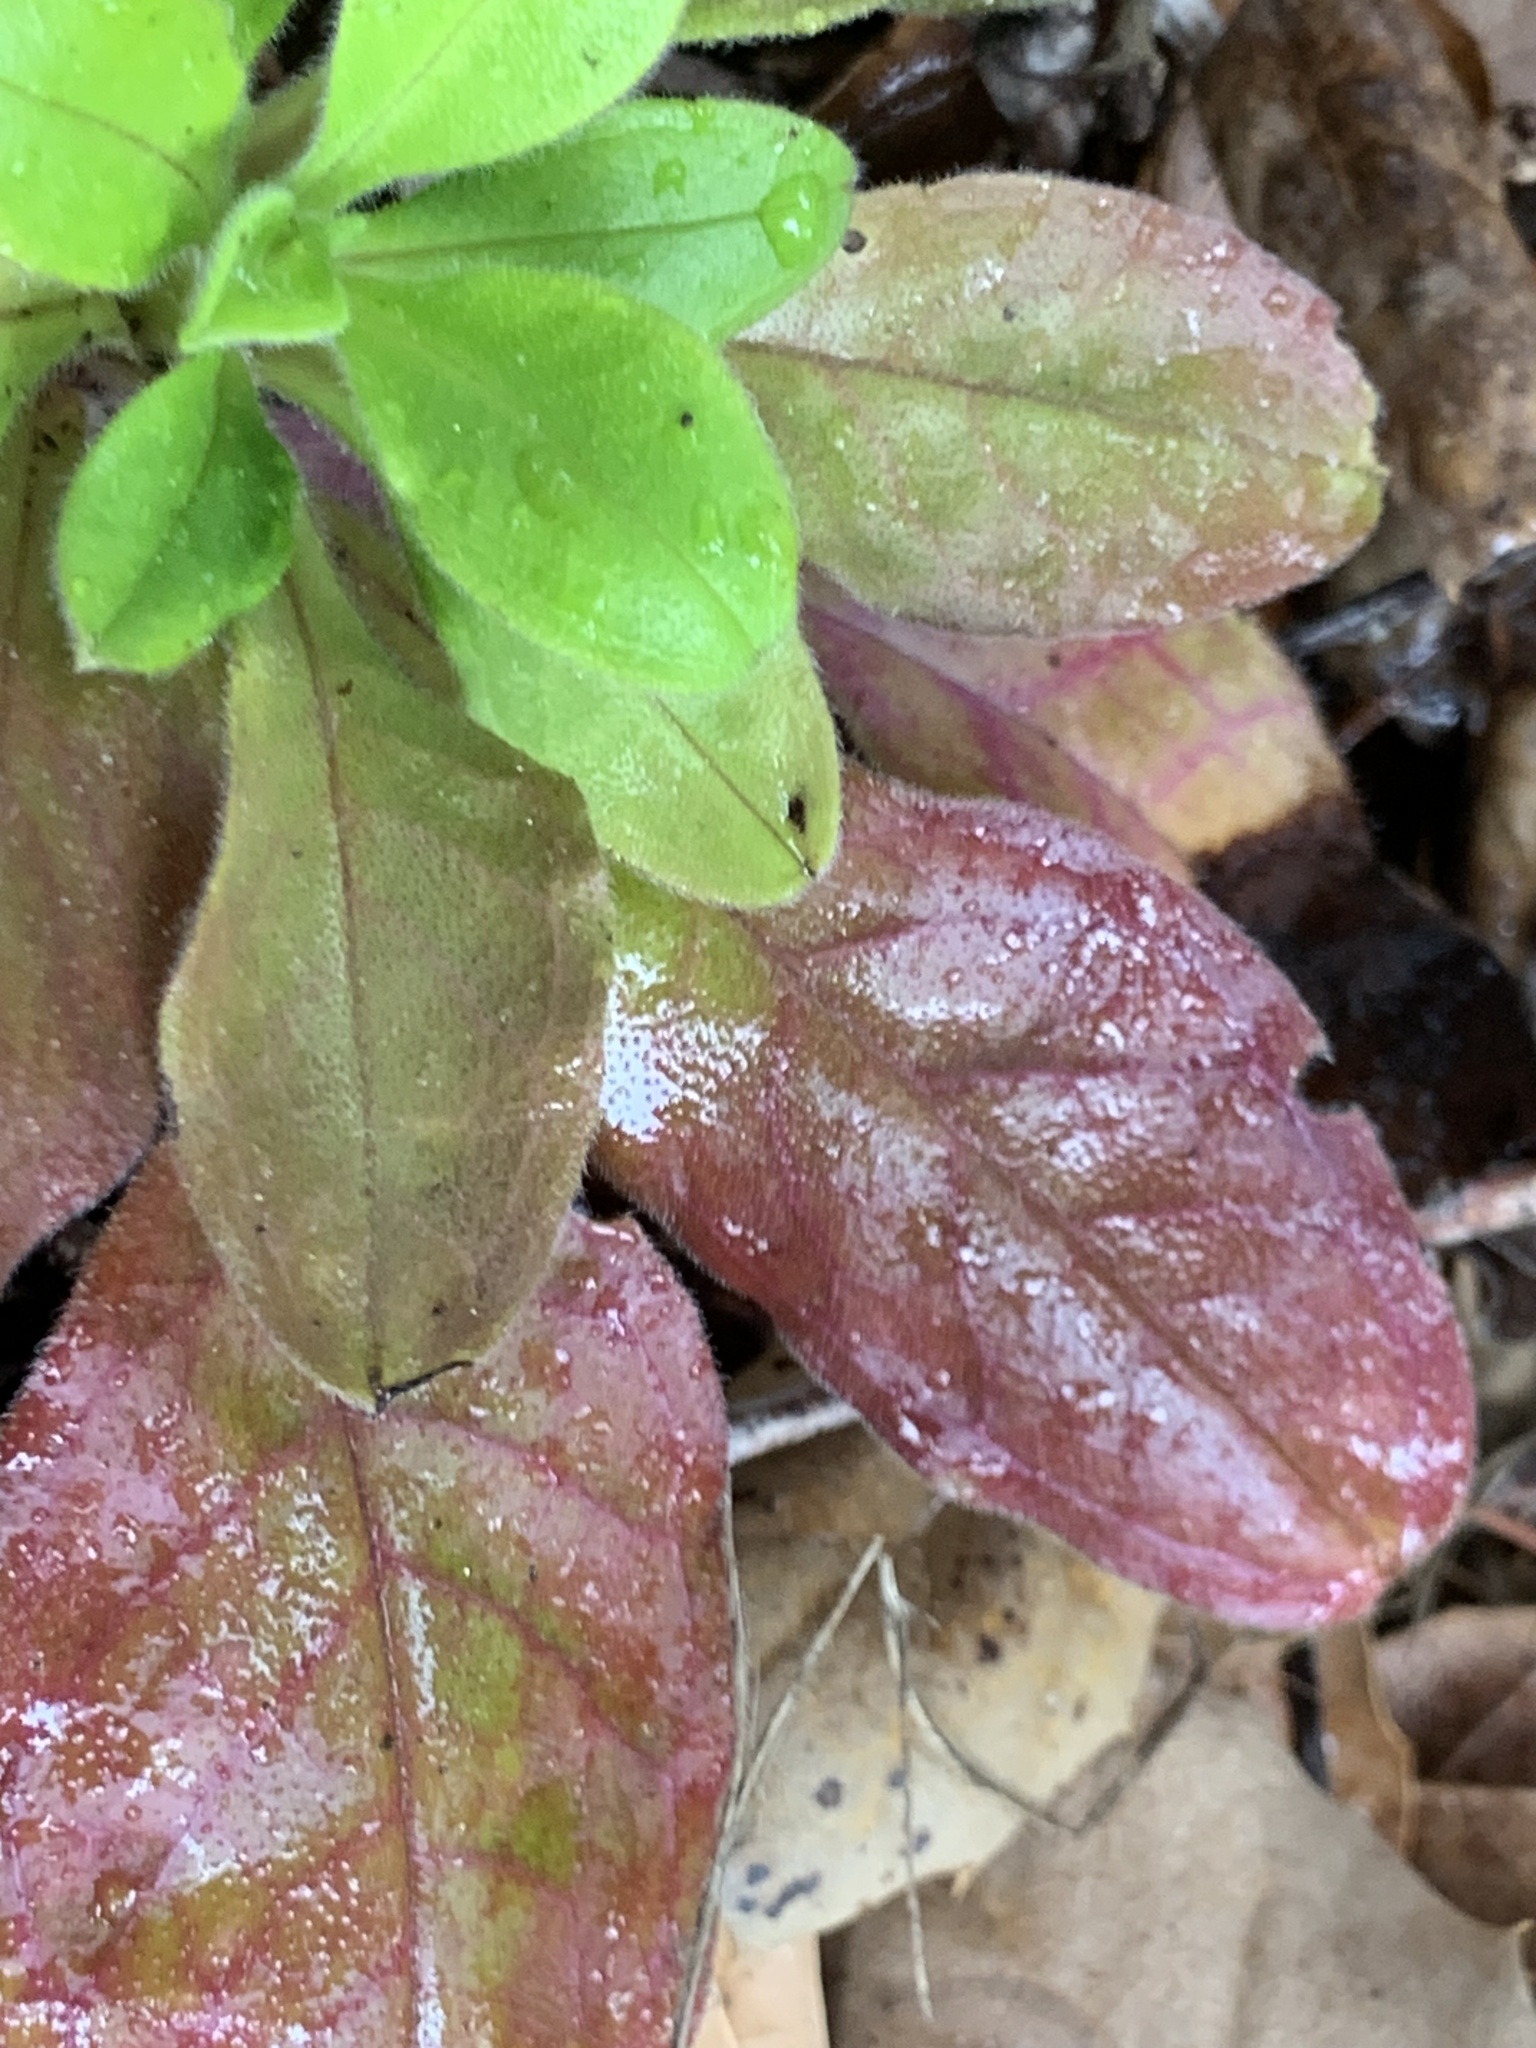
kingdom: Plantae
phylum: Tracheophyta
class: Magnoliopsida
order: Boraginales
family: Boraginaceae
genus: Myosotis
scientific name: Myosotis latifolia
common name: Broadleaf forget-me-not
